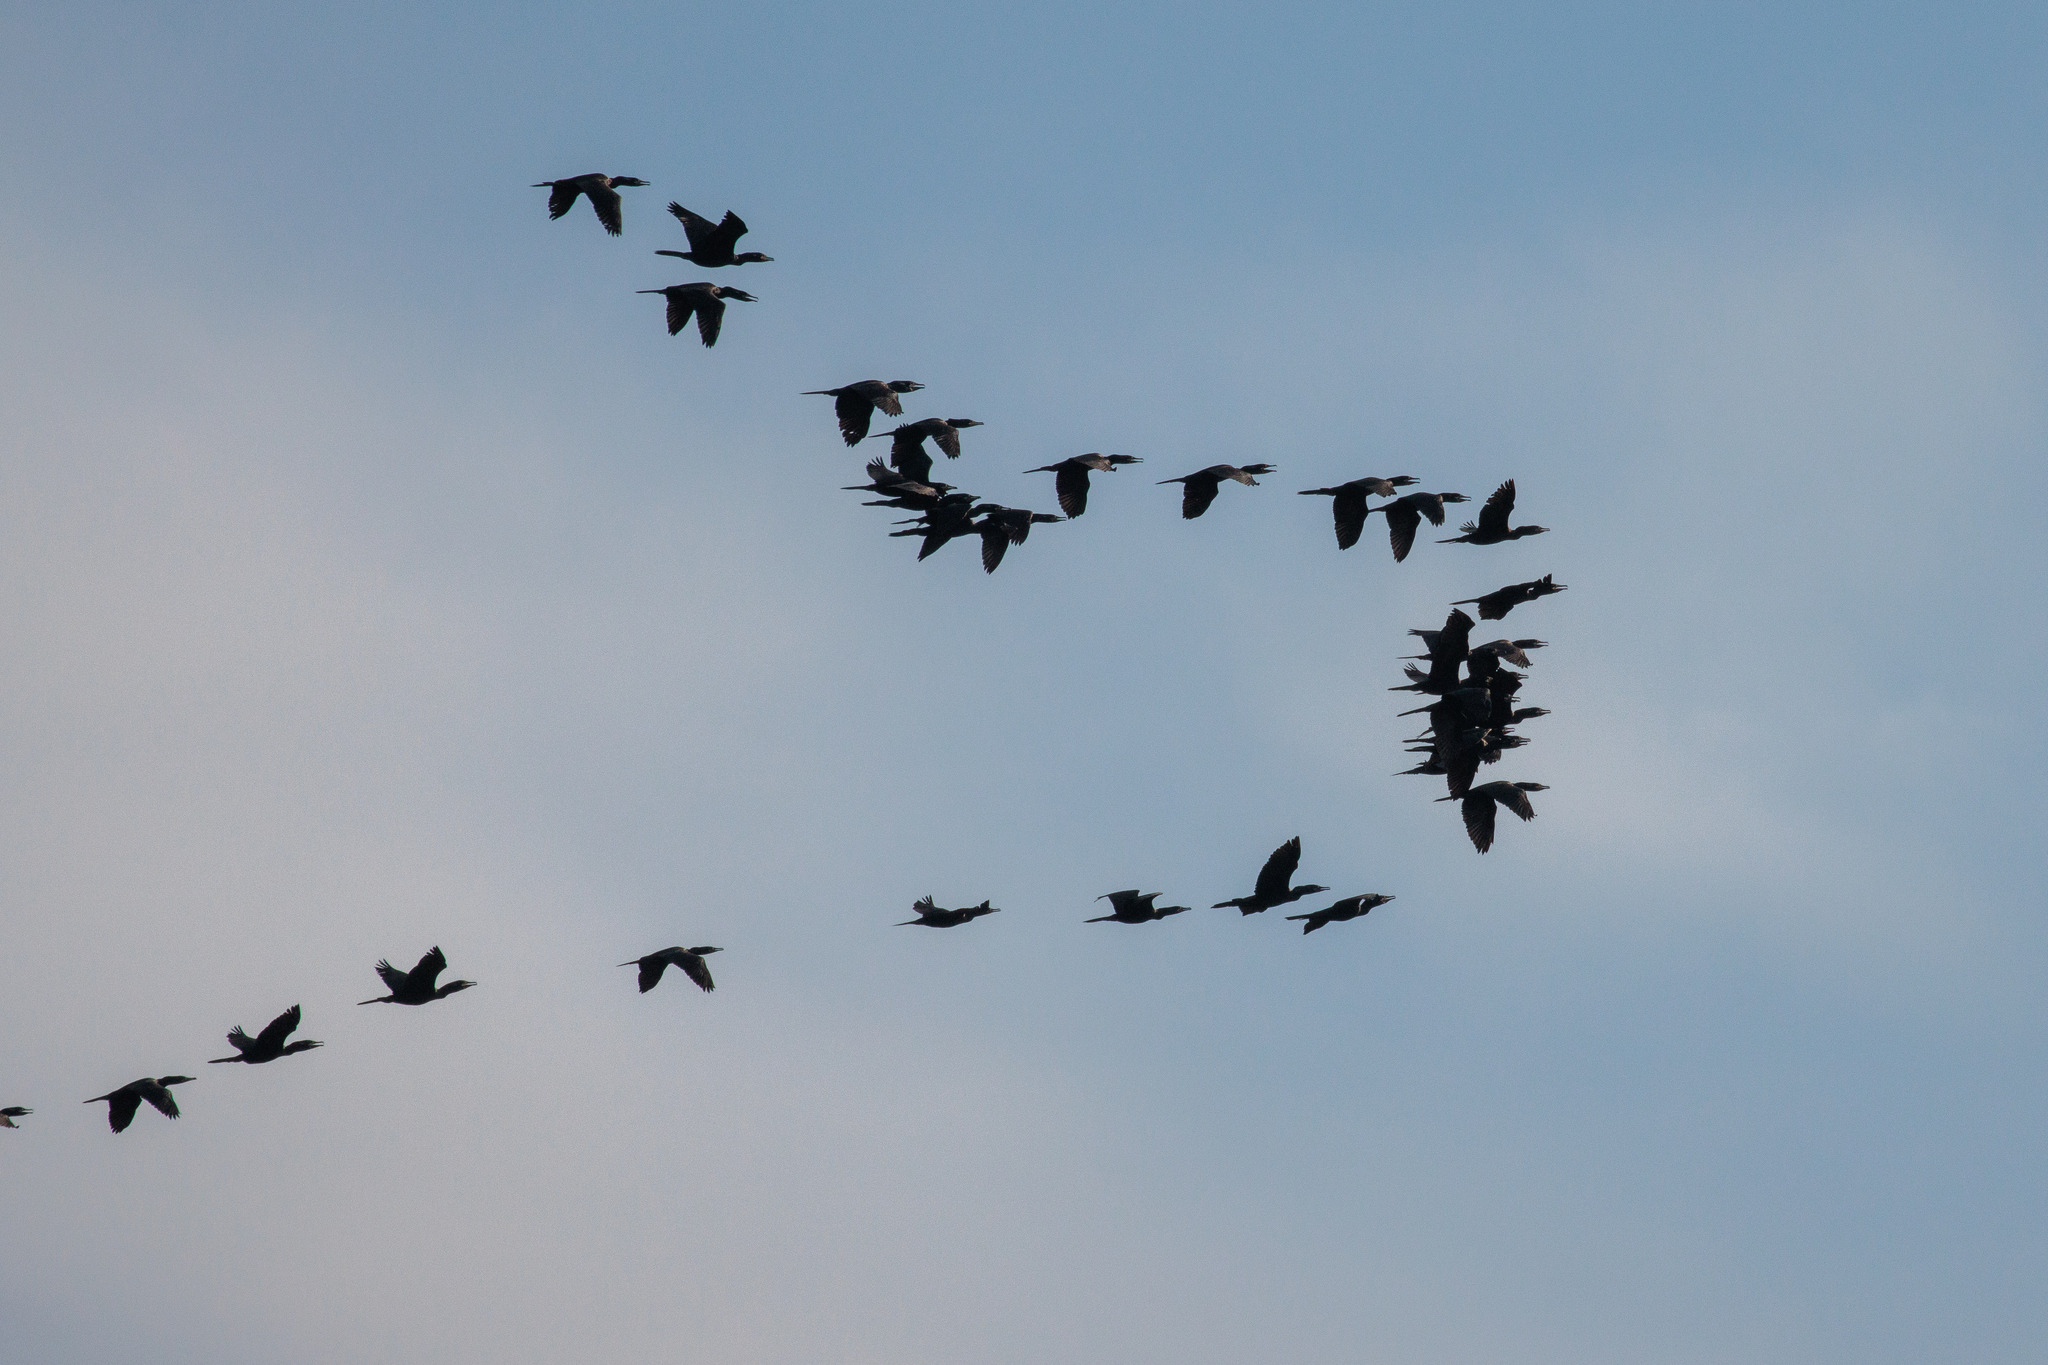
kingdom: Animalia
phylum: Chordata
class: Aves
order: Suliformes
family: Phalacrocoracidae
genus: Phalacrocorax
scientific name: Phalacrocorax brasilianus
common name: Neotropic cormorant
